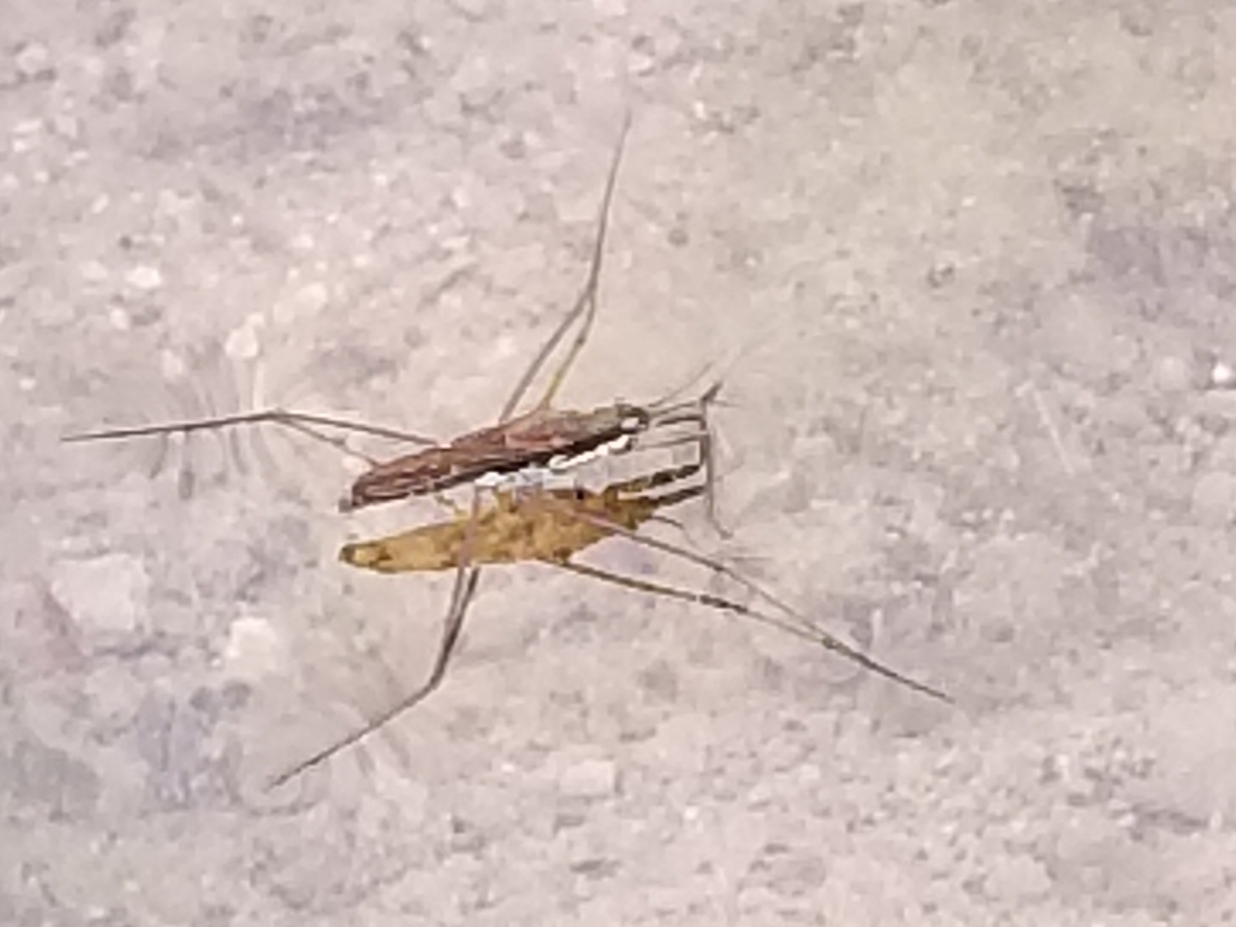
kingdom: Animalia
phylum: Arthropoda
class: Insecta
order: Hemiptera
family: Gerridae
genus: Aquarius
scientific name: Aquarius remigis
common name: Common water strider
